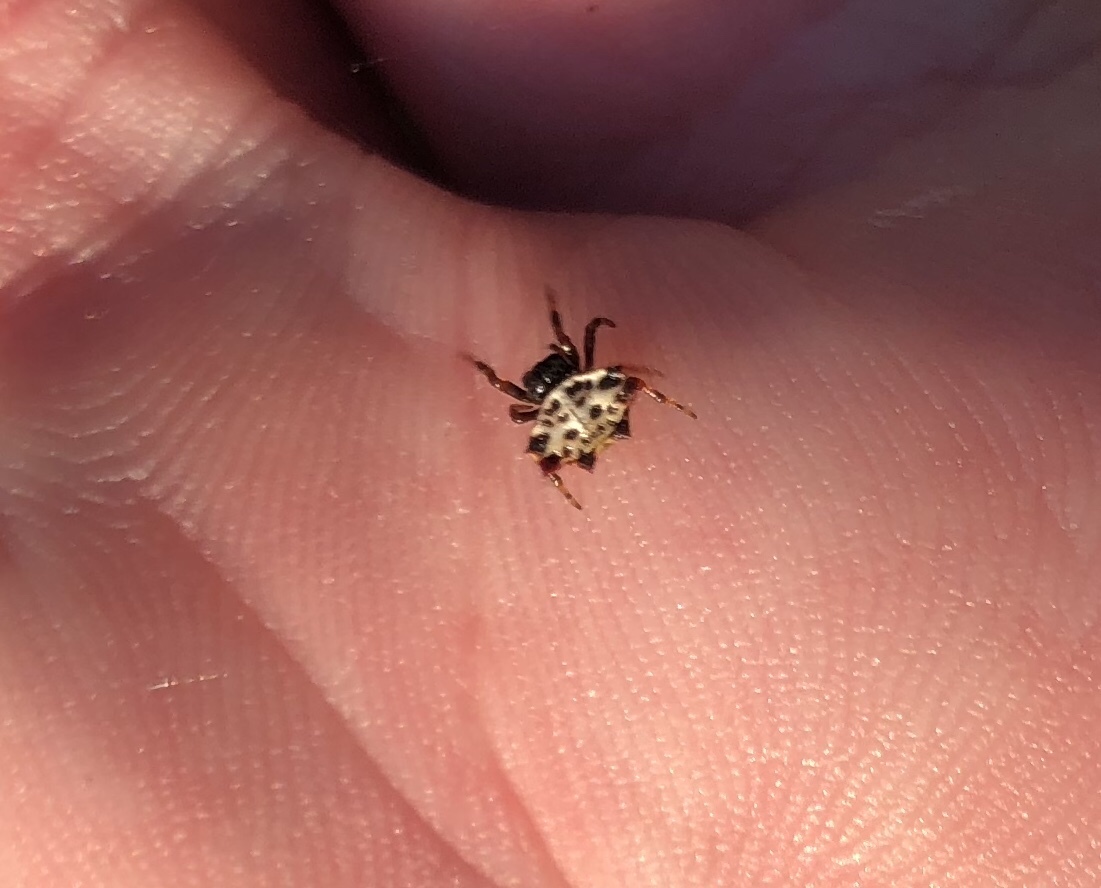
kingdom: Animalia
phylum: Arthropoda
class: Arachnida
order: Araneae
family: Araneidae
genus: Gasteracantha
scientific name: Gasteracantha cancriformis
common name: Orb weavers
